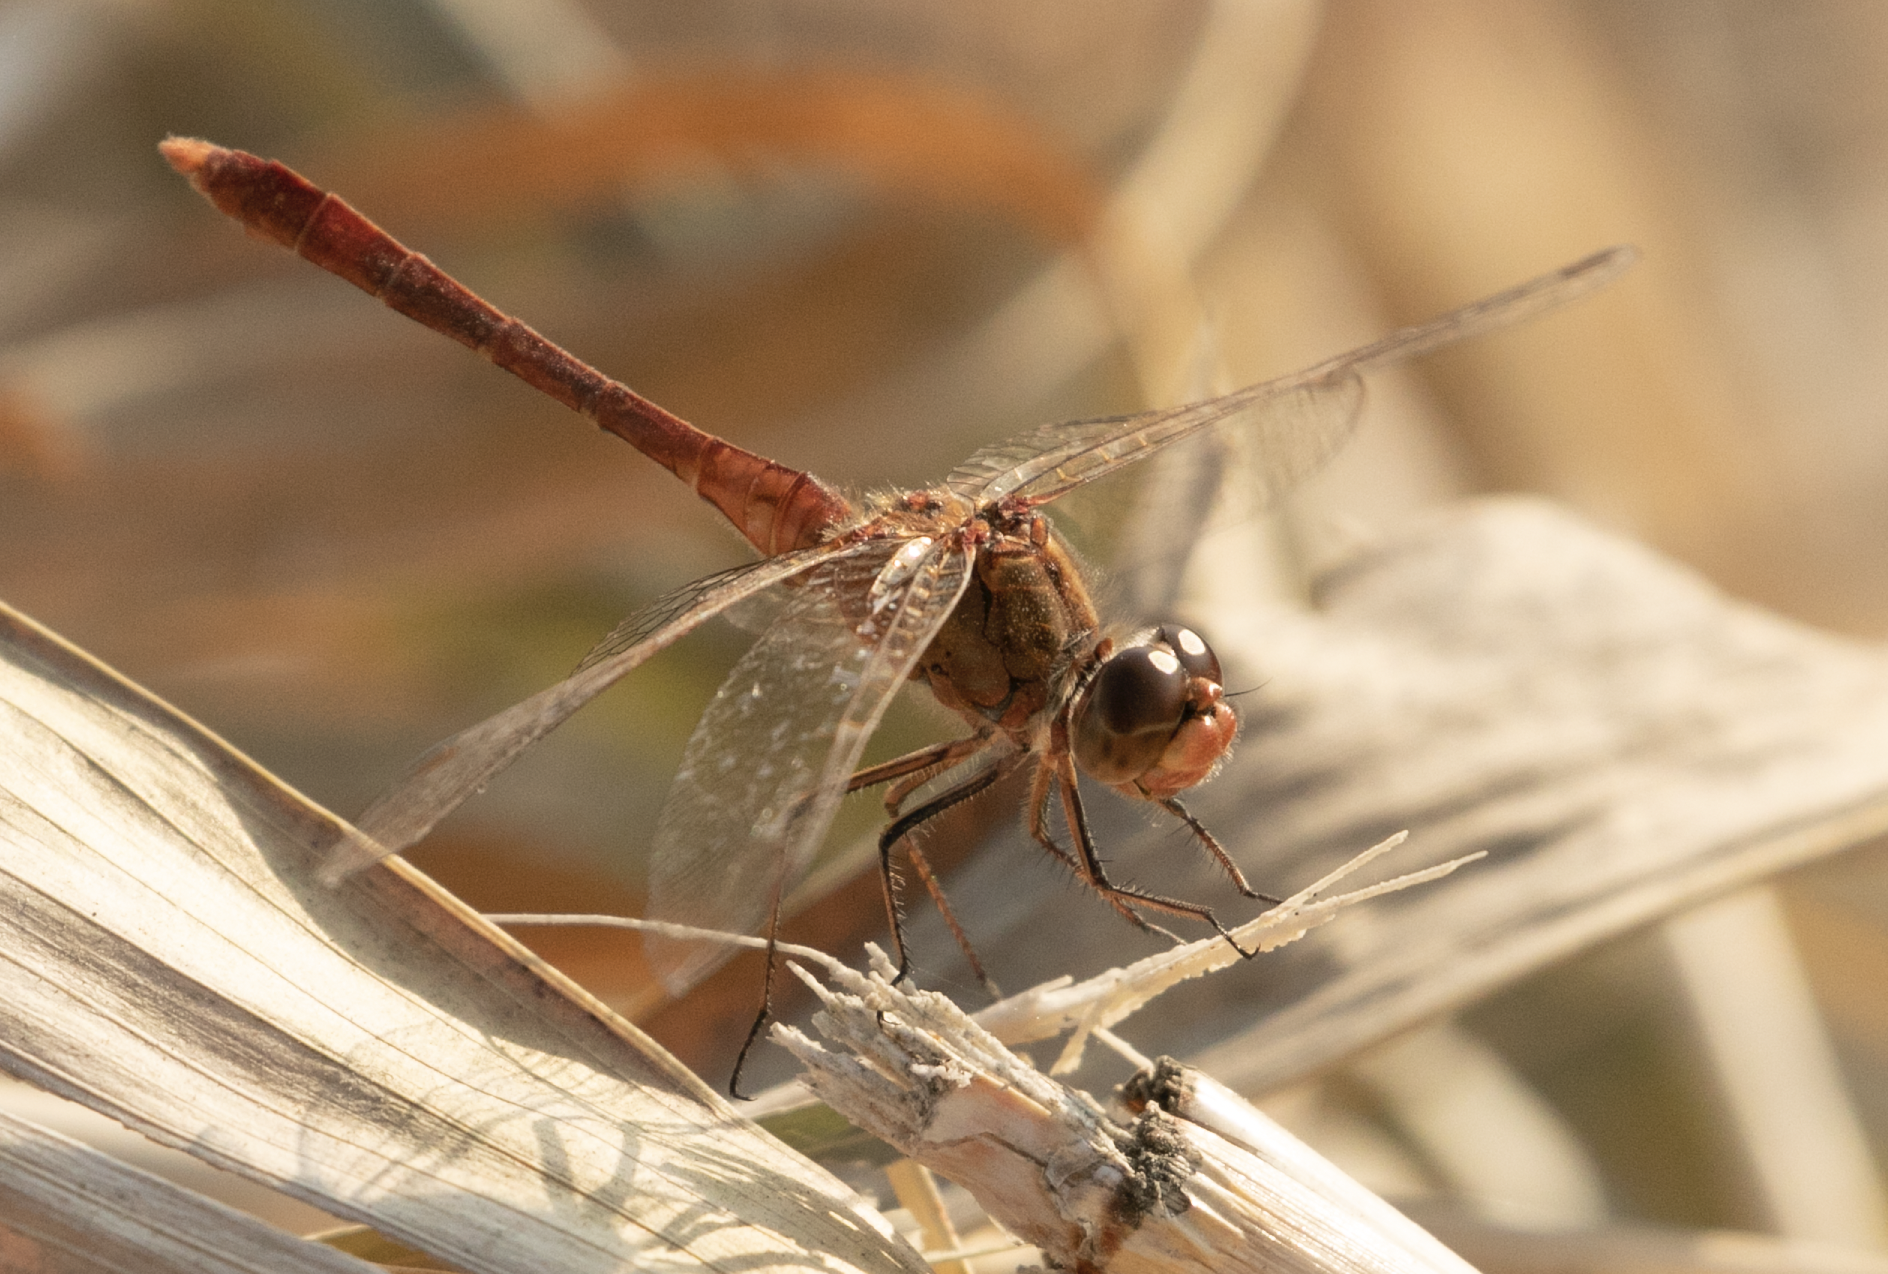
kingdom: Animalia
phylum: Arthropoda
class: Insecta
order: Odonata
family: Libellulidae
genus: Sympetrum
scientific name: Sympetrum meridionale
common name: Southern darter
